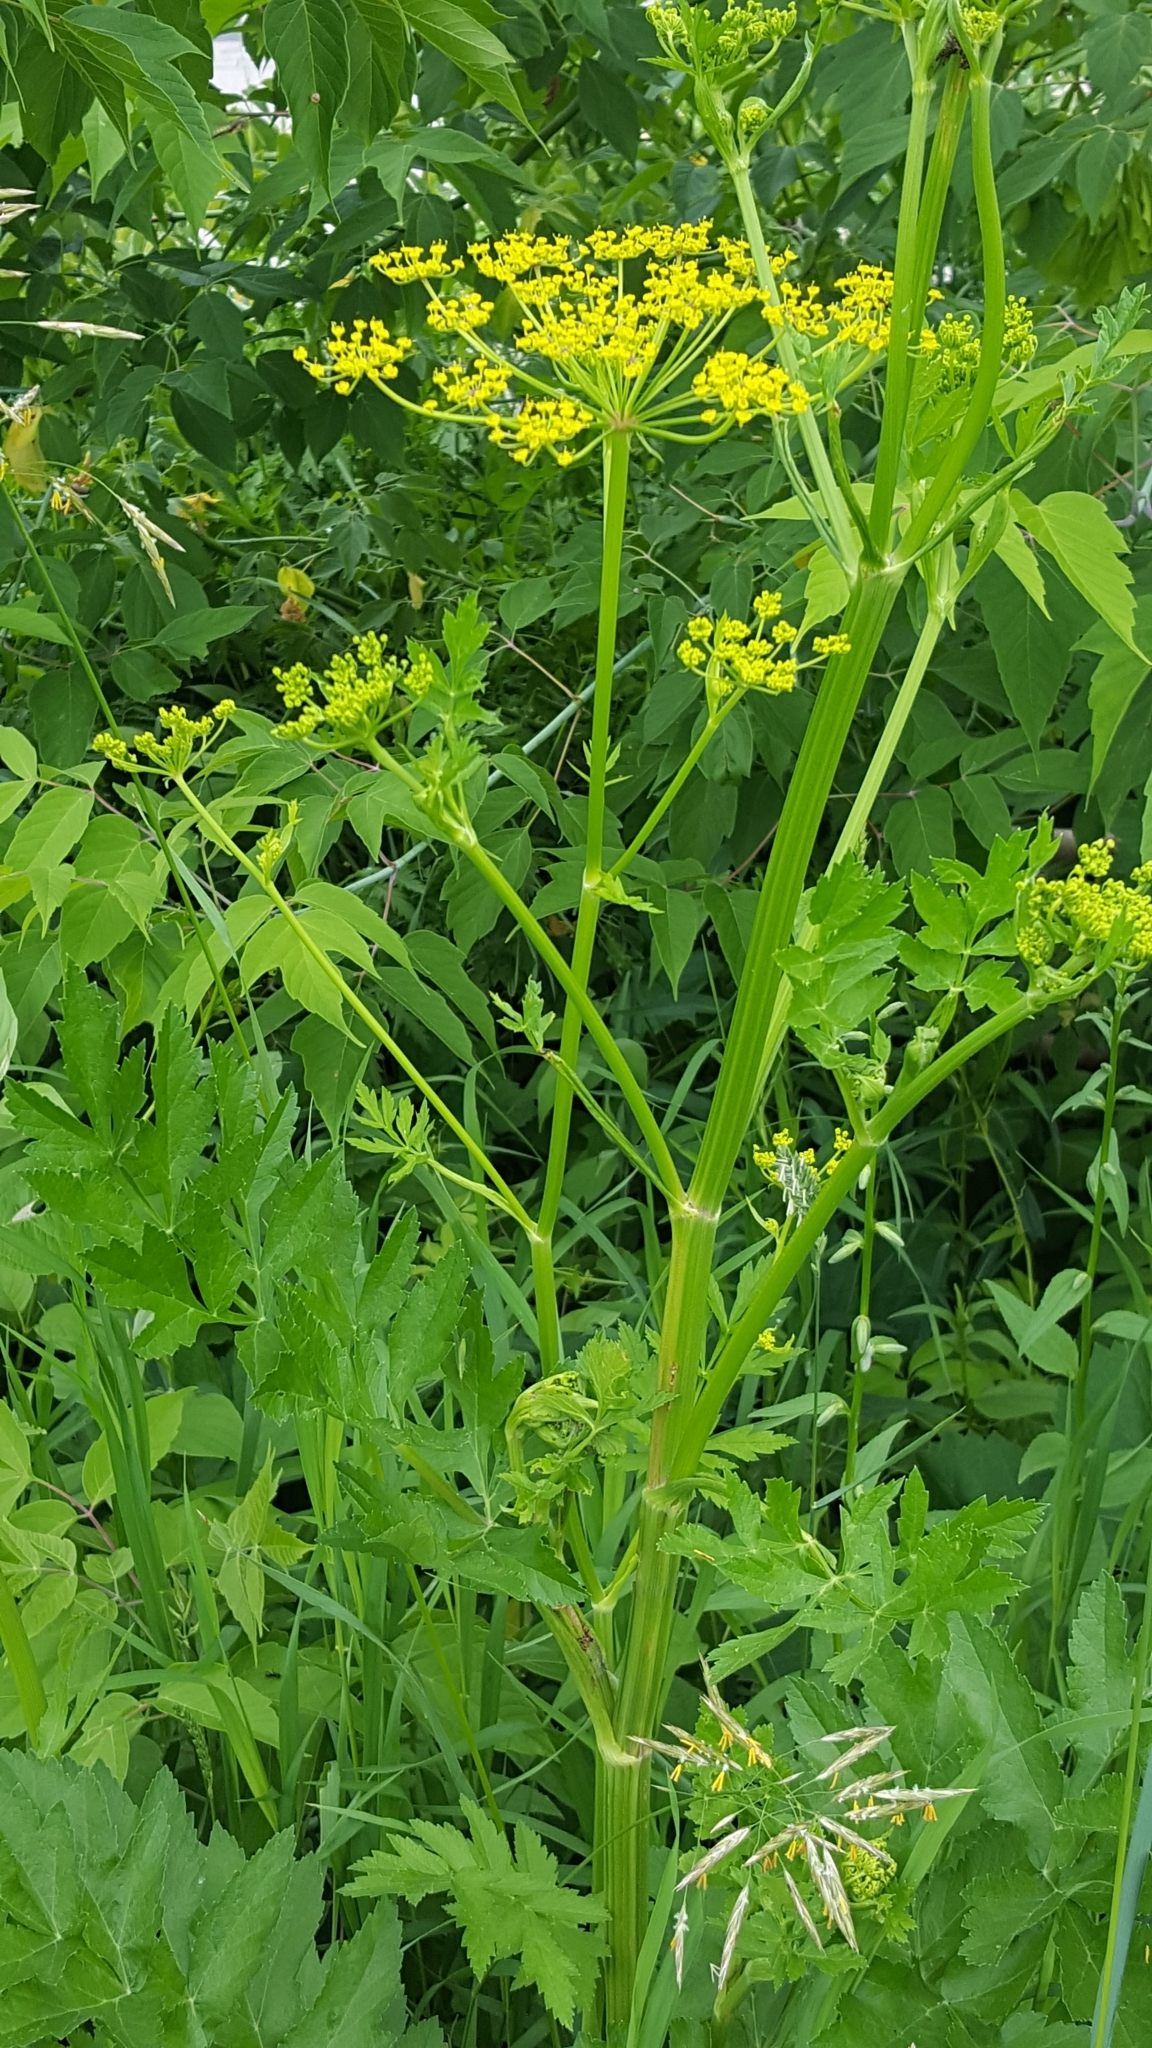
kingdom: Plantae
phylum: Tracheophyta
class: Magnoliopsida
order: Apiales
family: Apiaceae
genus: Pastinaca
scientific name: Pastinaca sativa
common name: Wild parsnip
